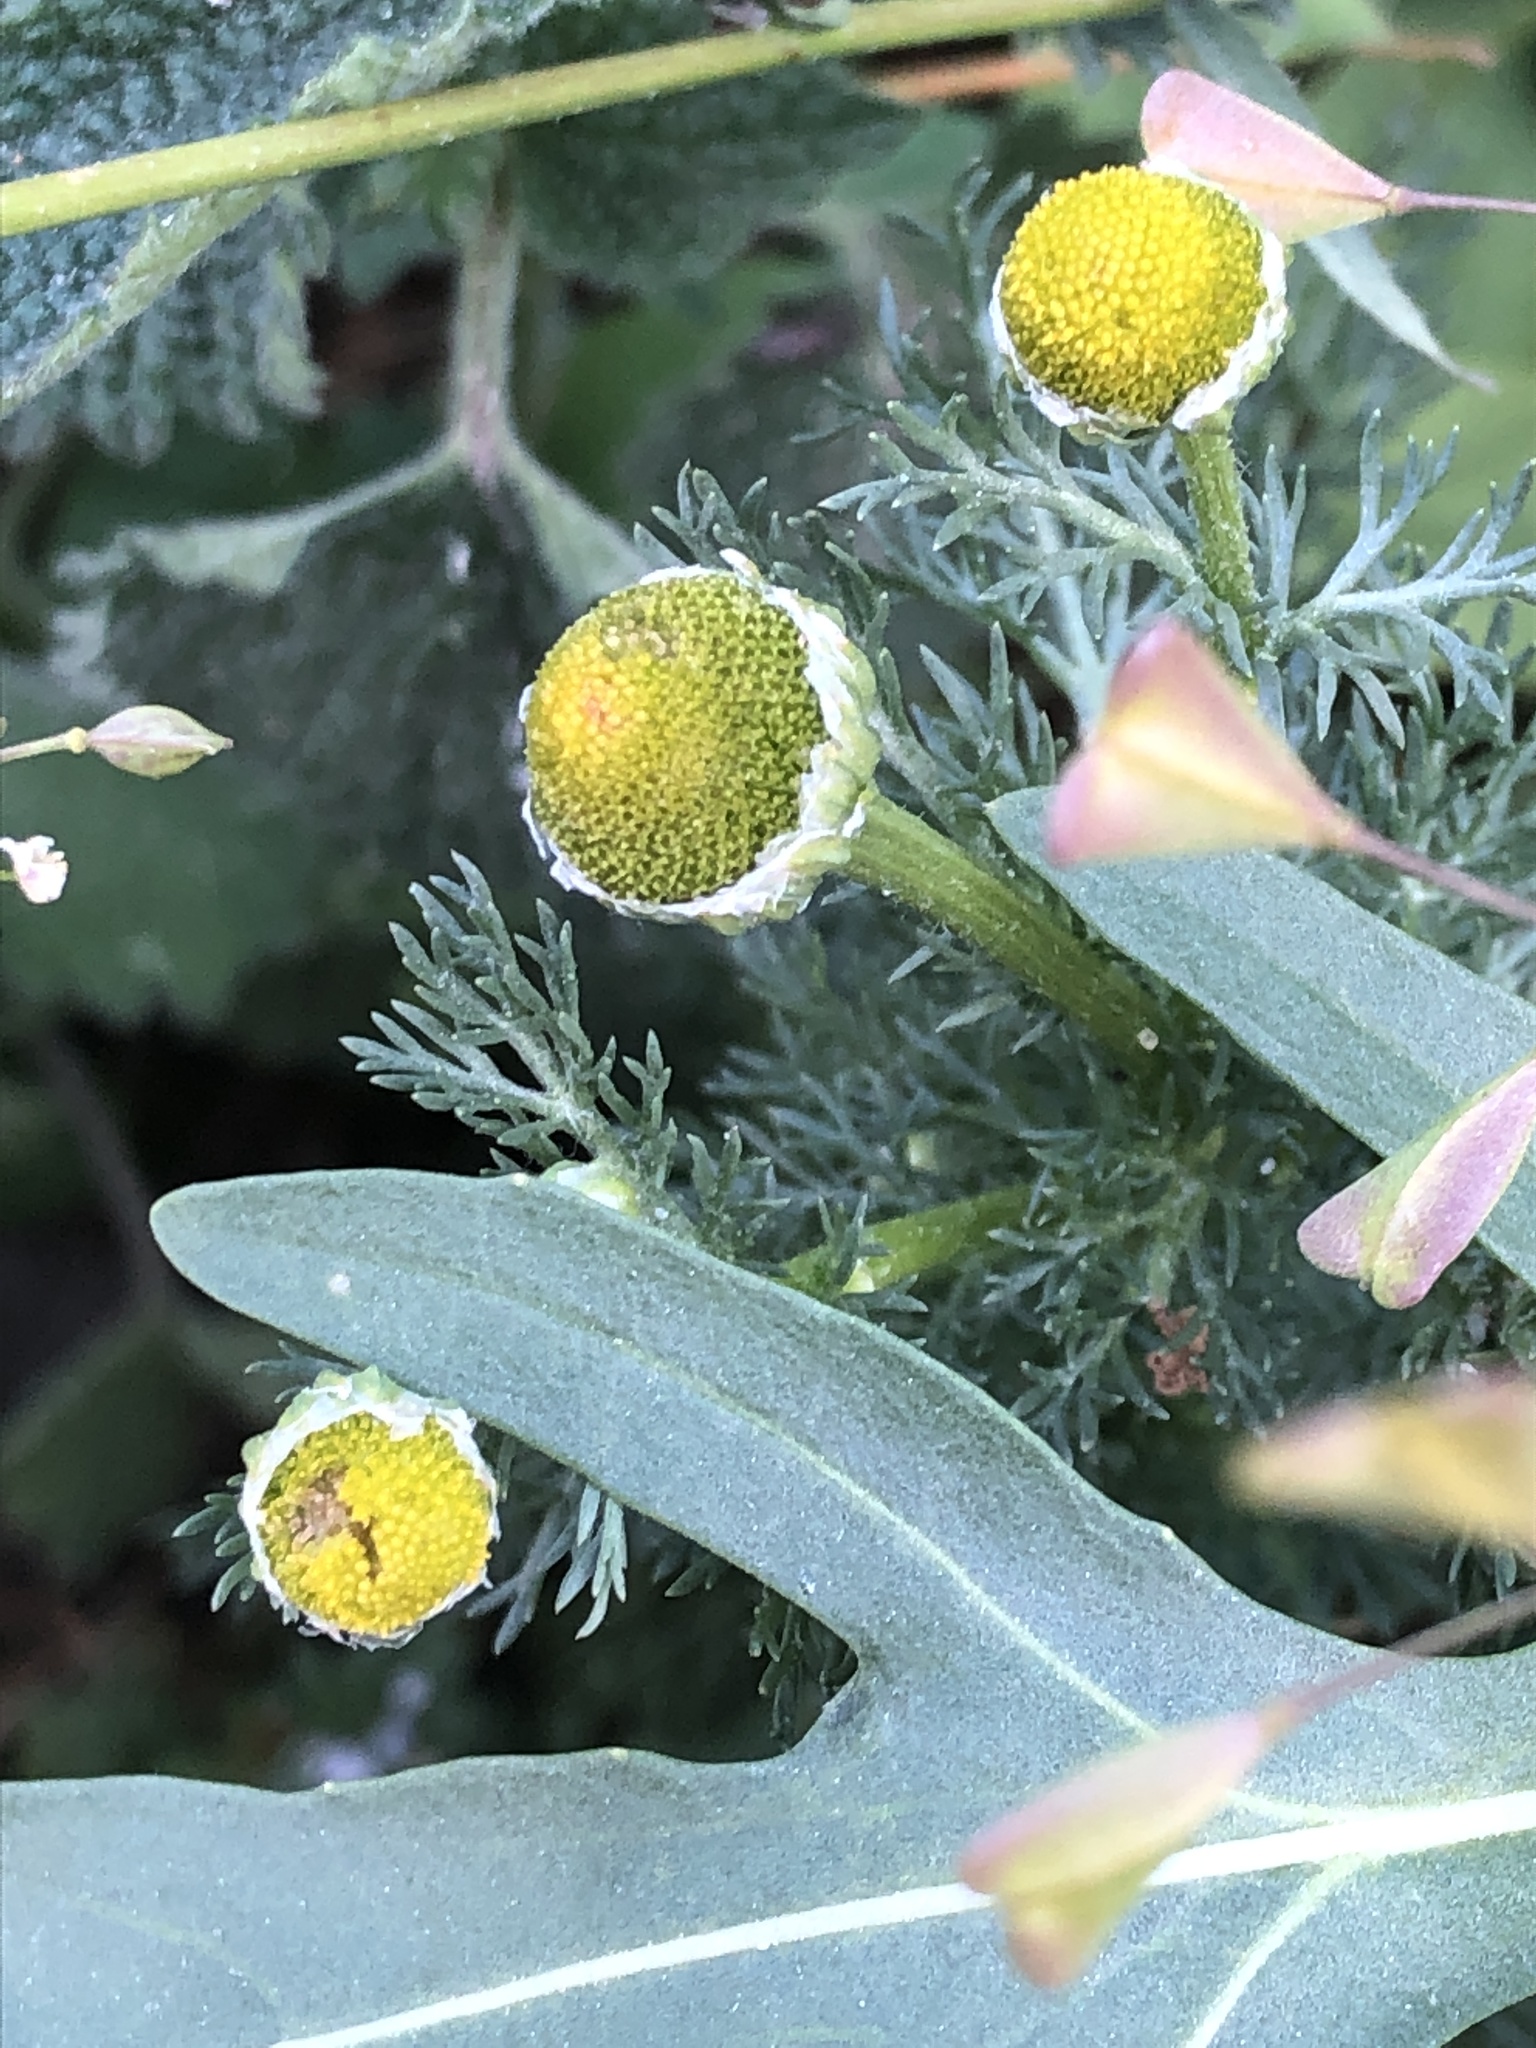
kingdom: Plantae
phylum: Tracheophyta
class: Magnoliopsida
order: Asterales
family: Asteraceae
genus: Matricaria
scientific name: Matricaria discoidea
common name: Disc mayweed
